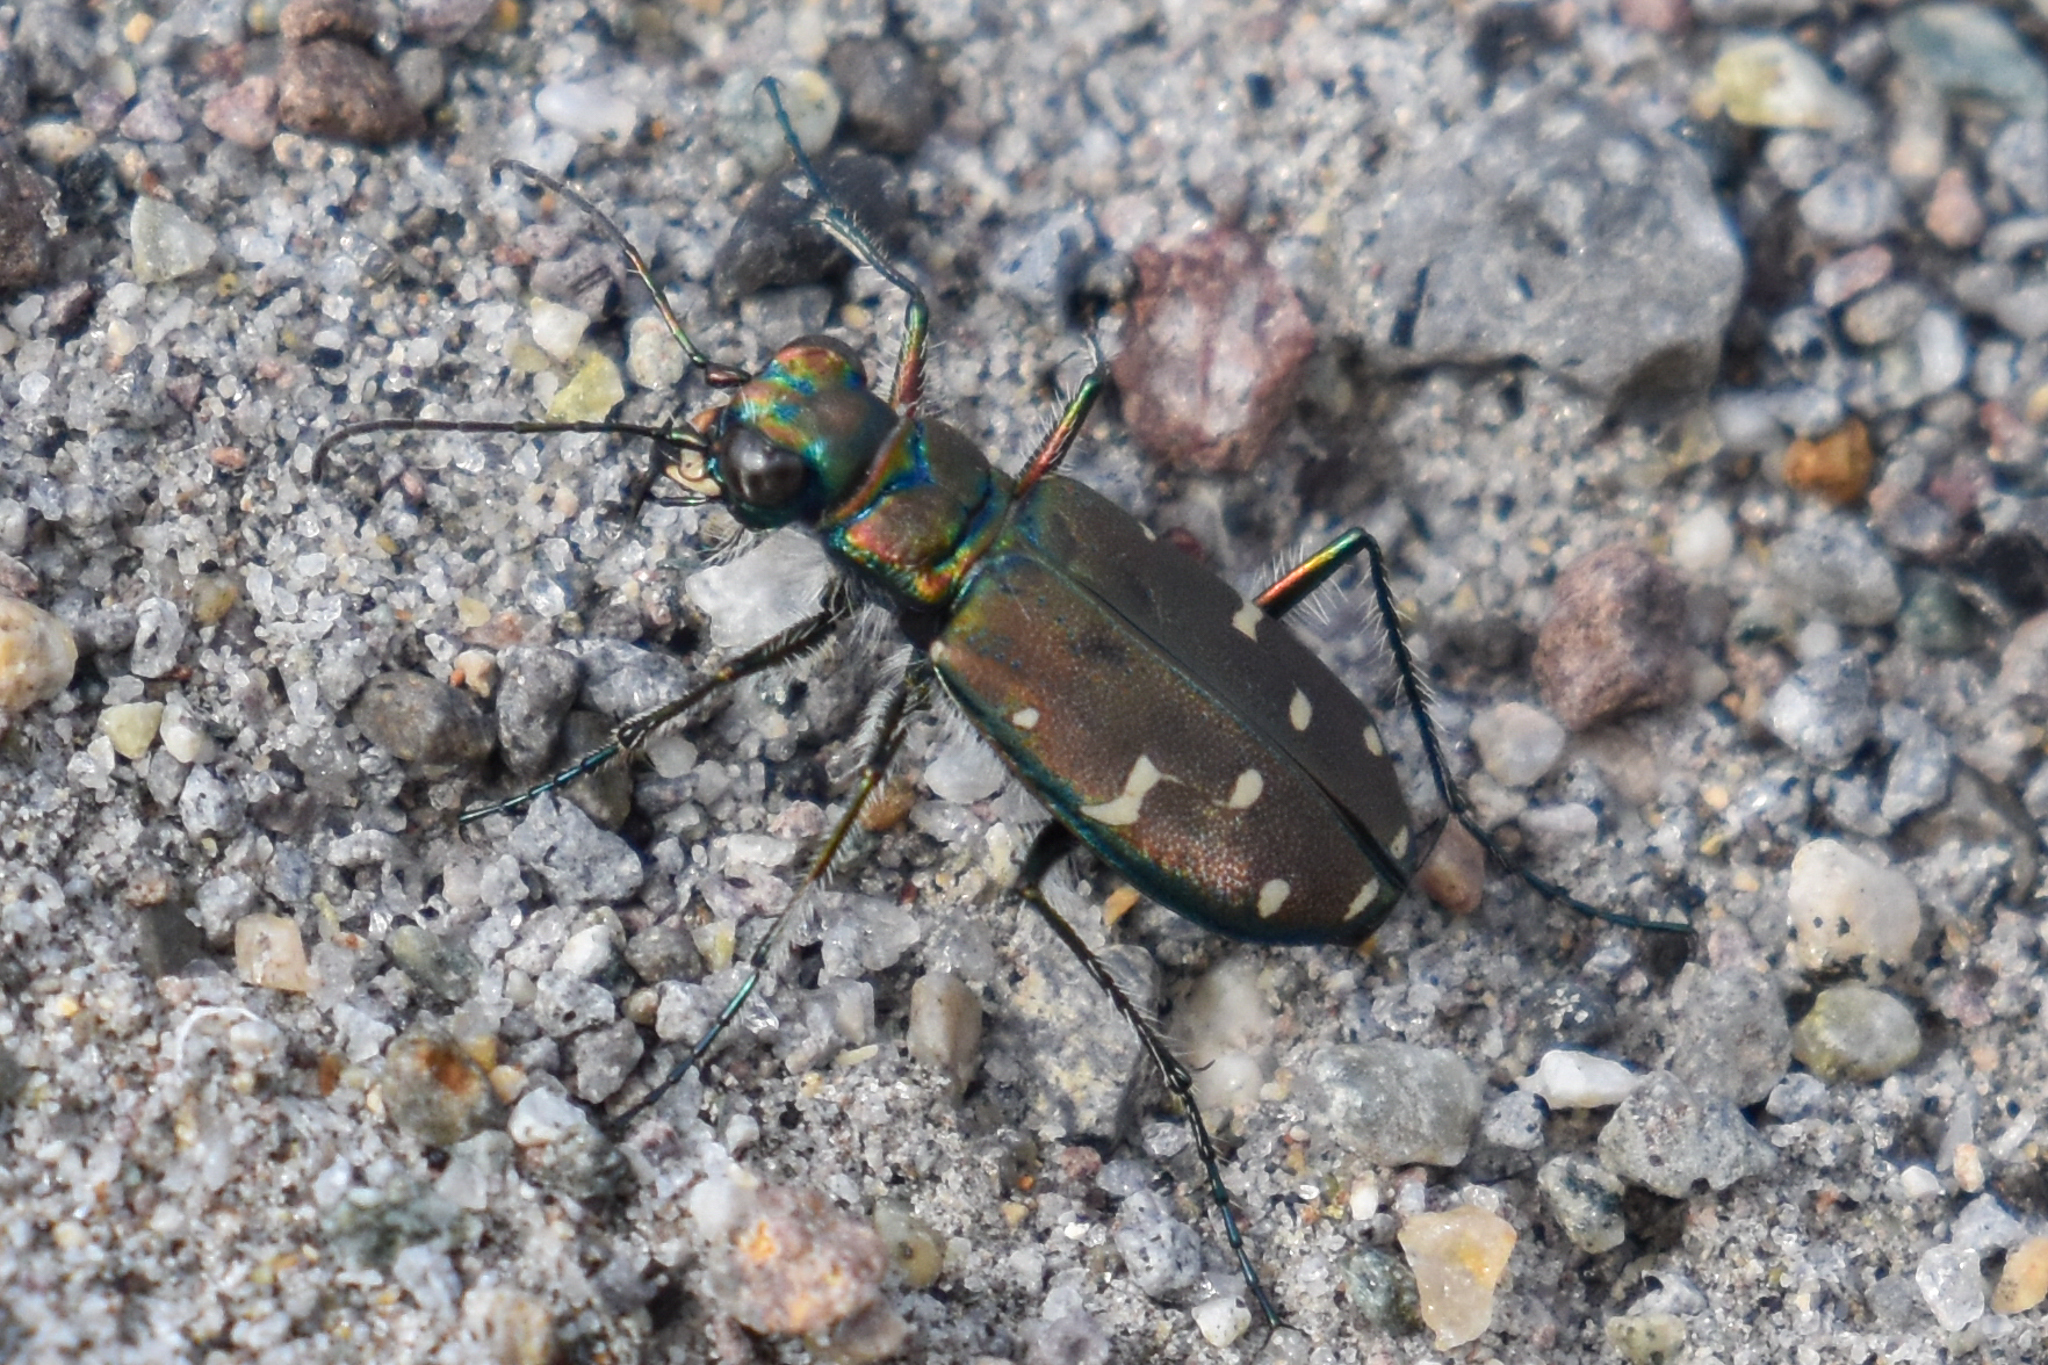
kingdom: Animalia
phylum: Arthropoda
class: Insecta
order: Coleoptera
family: Carabidae
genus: Cicindela
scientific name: Cicindela oregona
